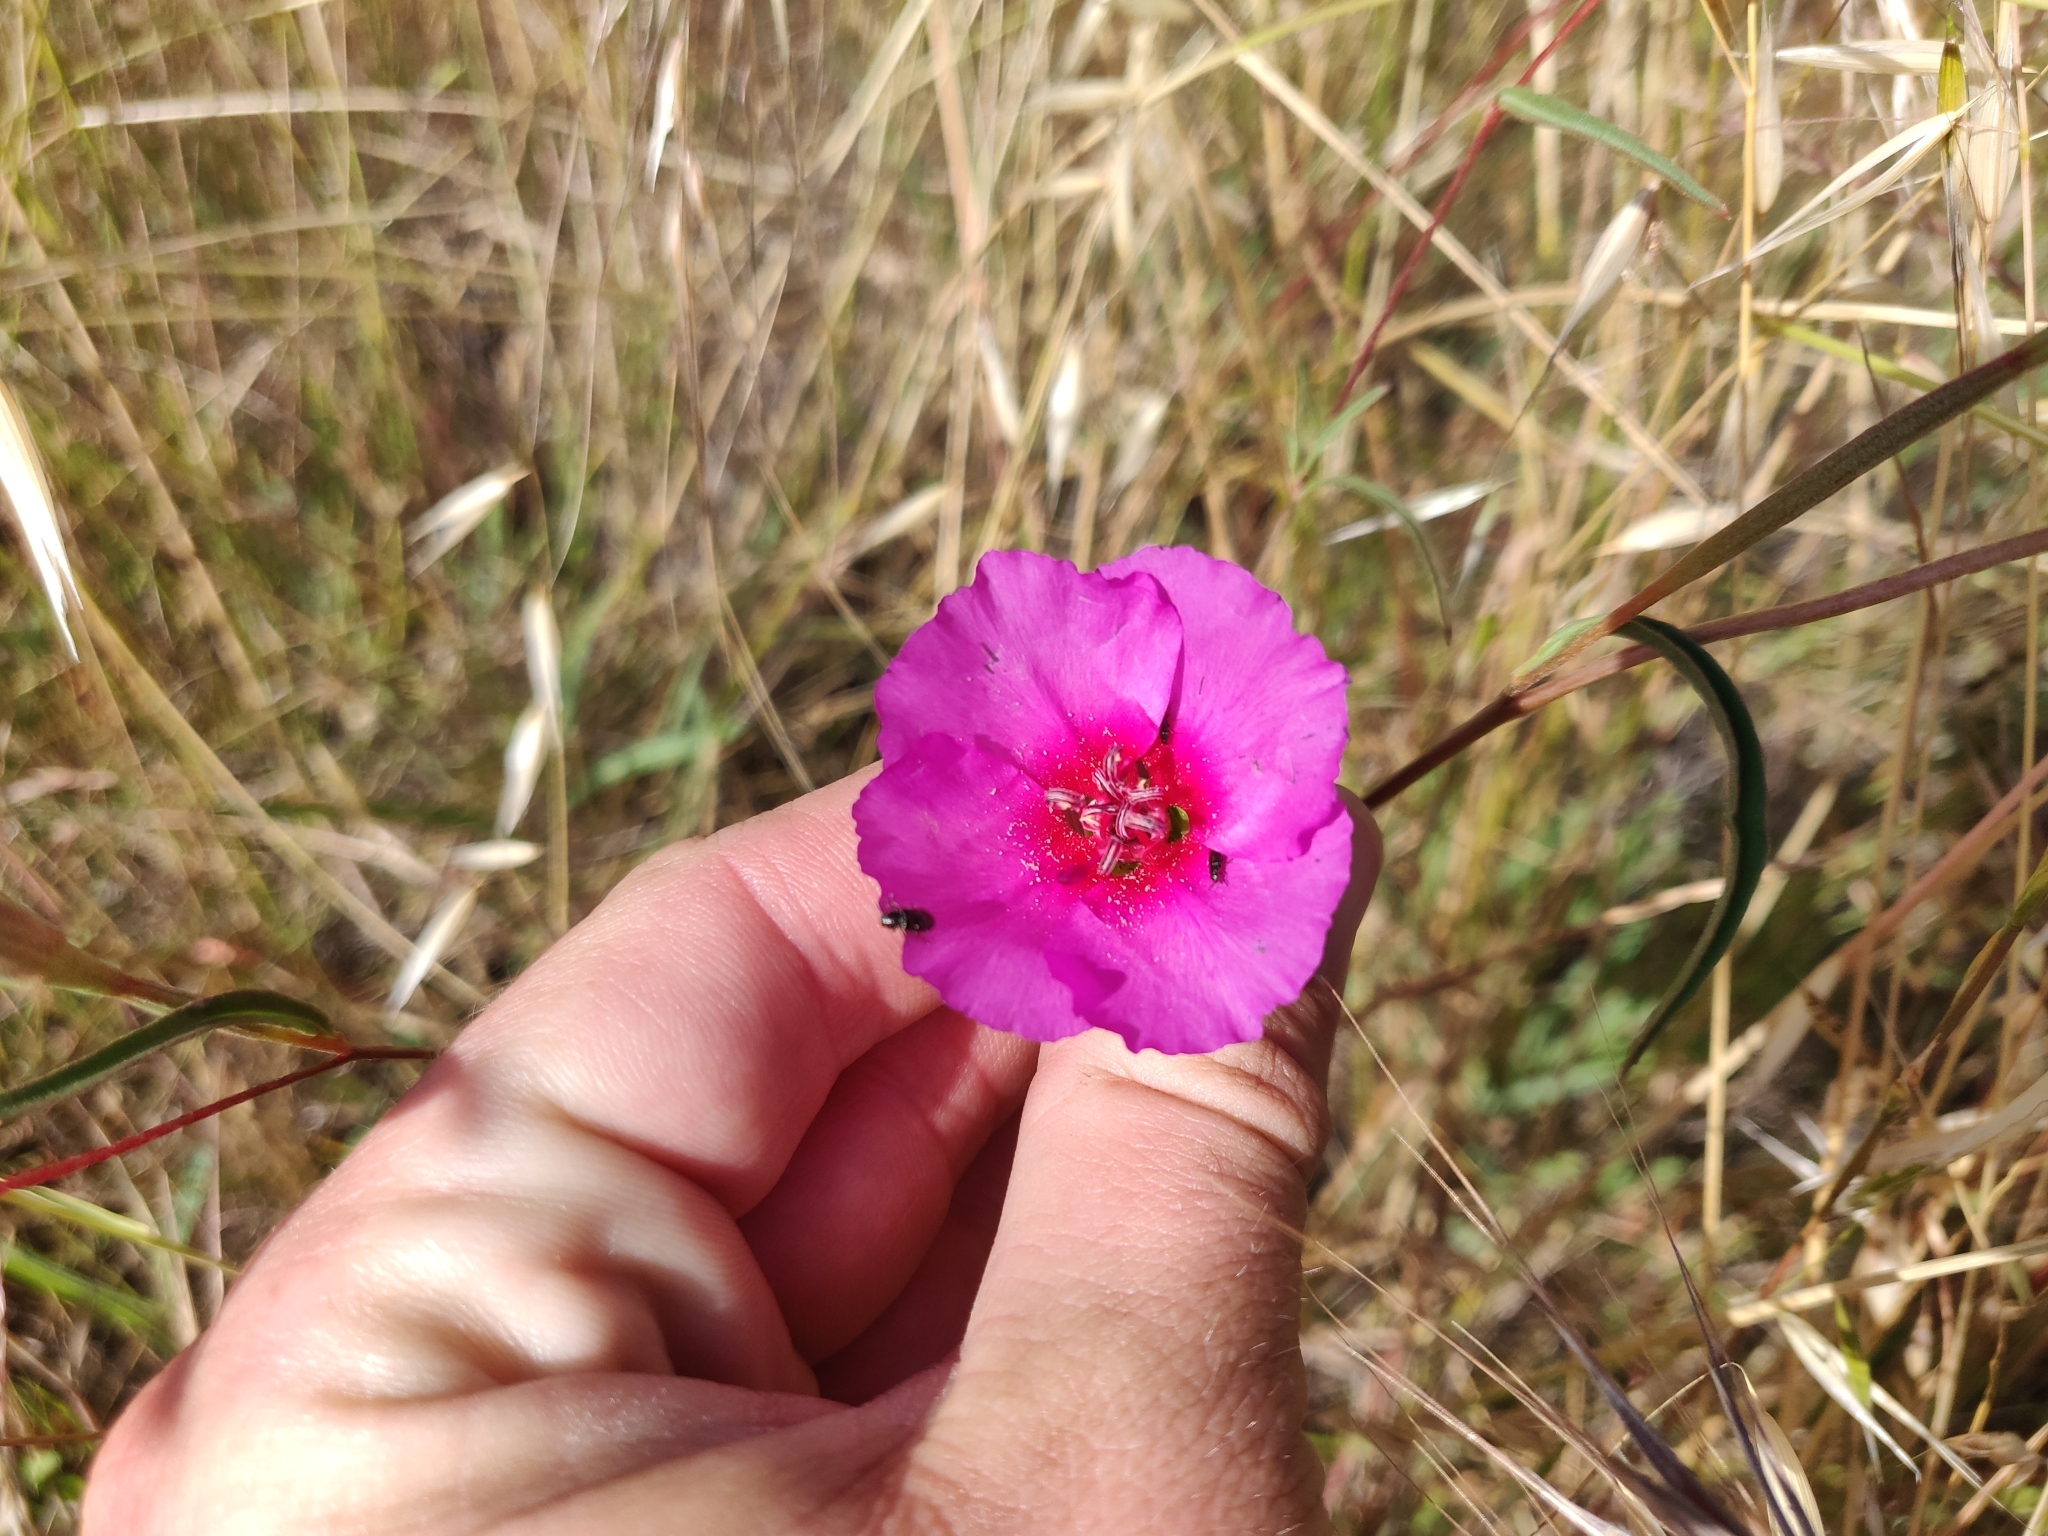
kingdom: Plantae
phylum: Tracheophyta
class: Magnoliopsida
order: Myrtales
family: Onagraceae
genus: Clarkia
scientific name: Clarkia rubicunda
